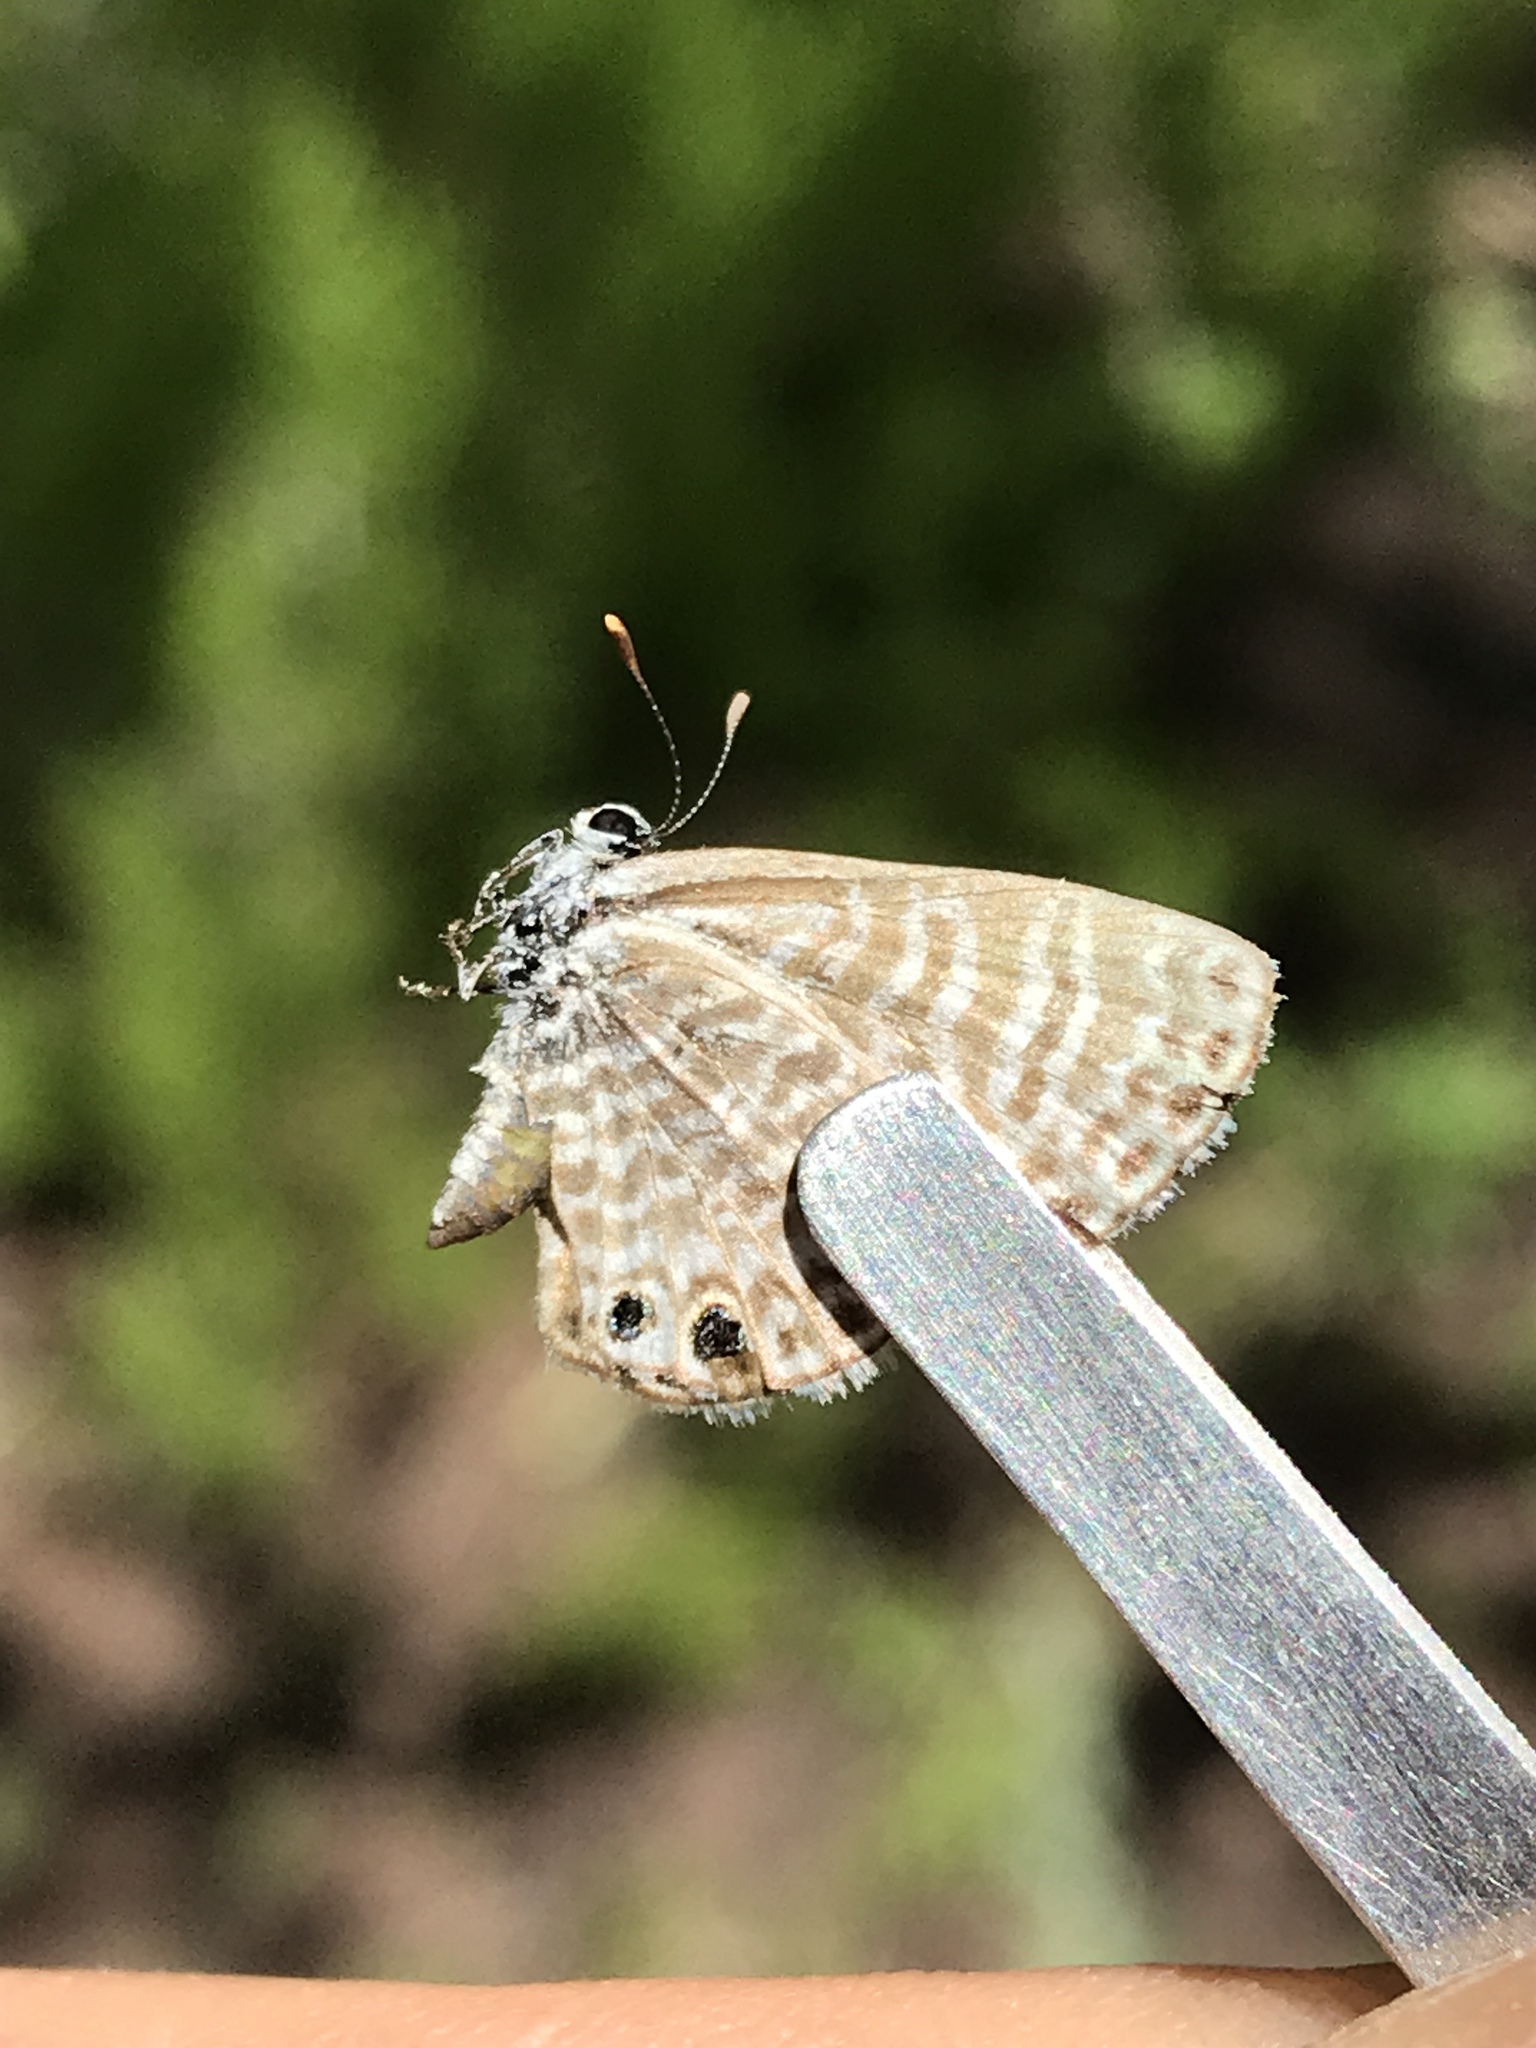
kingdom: Animalia
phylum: Arthropoda
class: Insecta
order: Lepidoptera
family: Lycaenidae
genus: Leptotes
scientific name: Leptotes marina
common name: Marine blue
